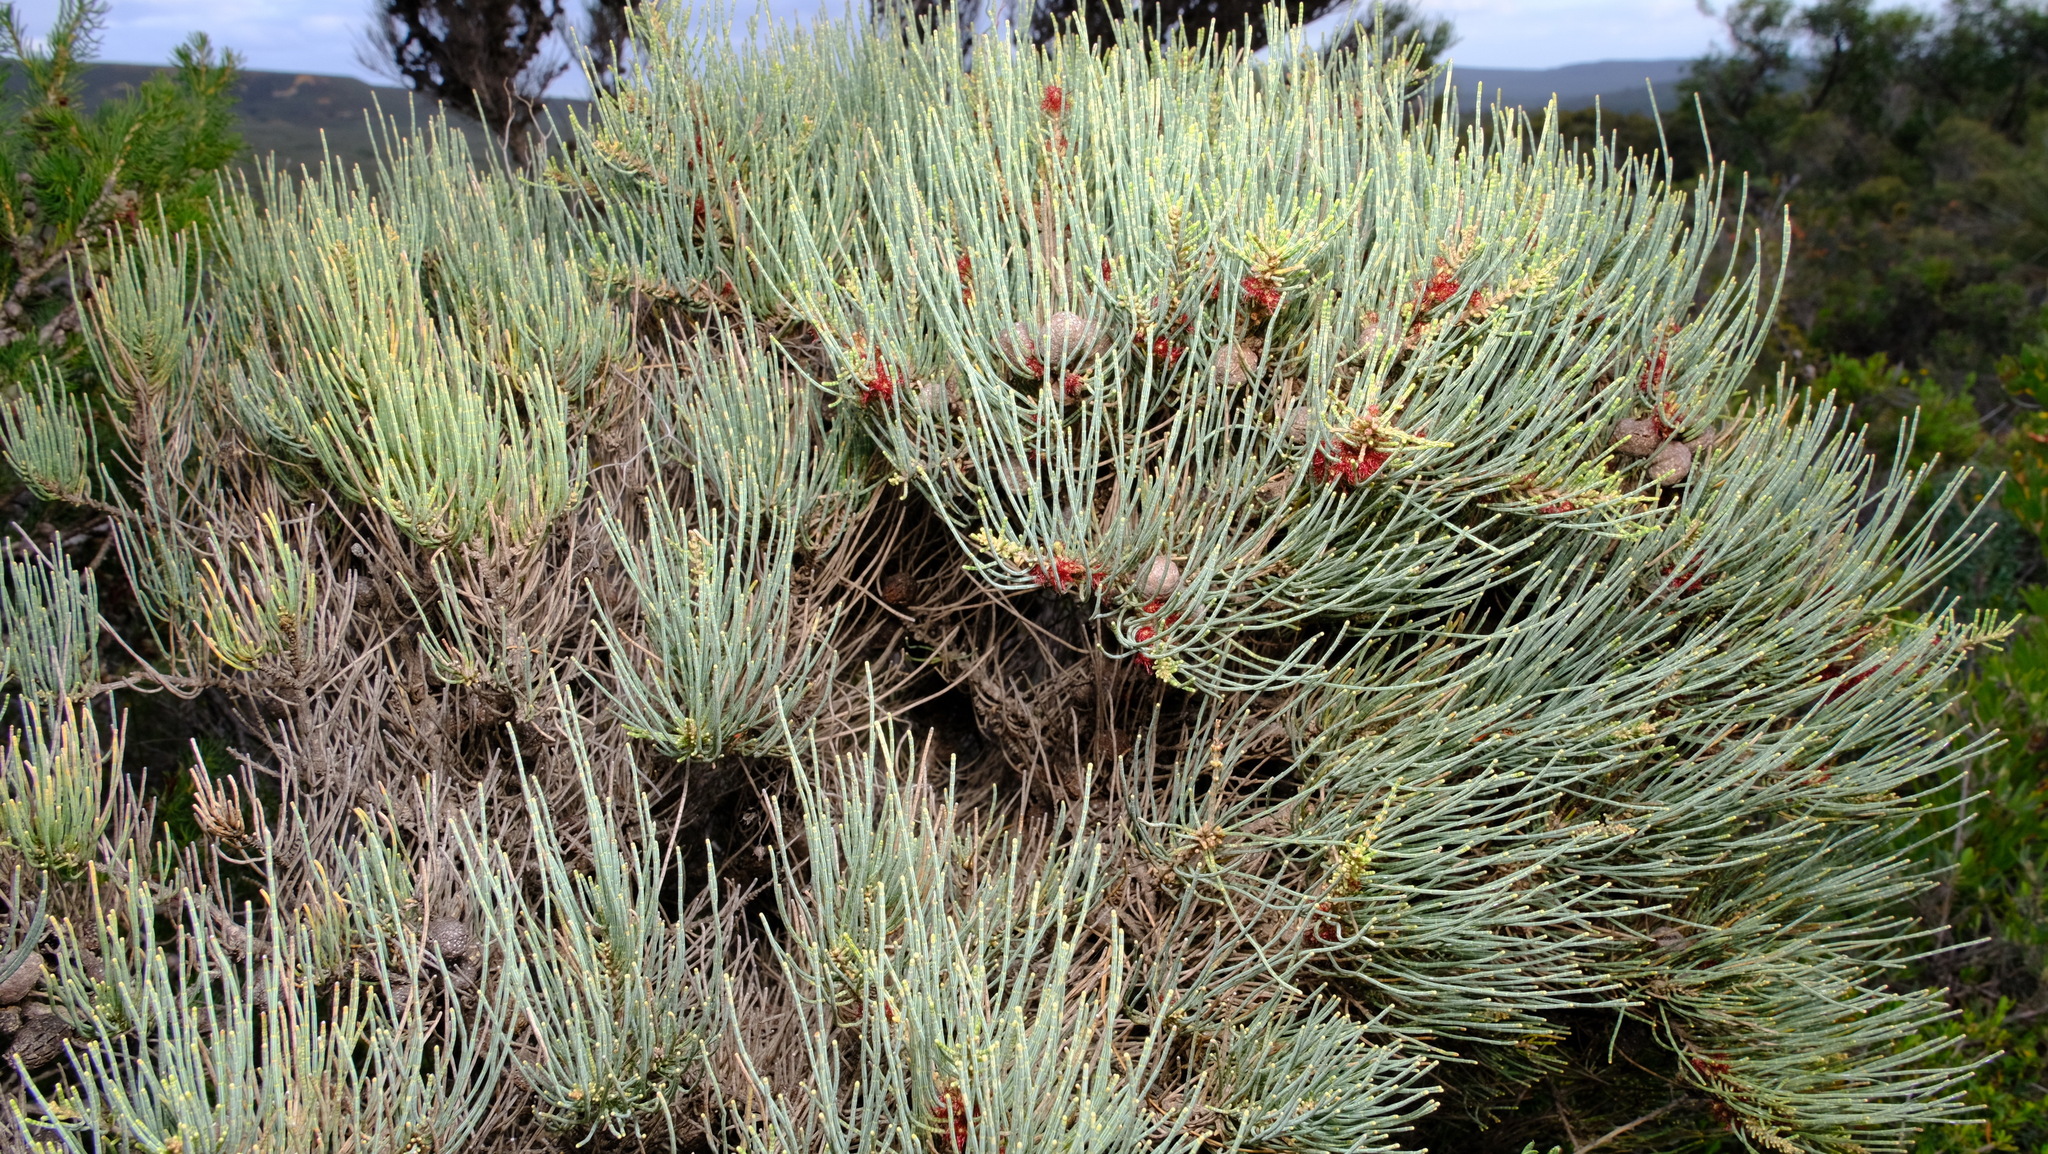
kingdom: Plantae
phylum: Tracheophyta
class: Magnoliopsida
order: Fagales
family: Casuarinaceae
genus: Allocasuarina
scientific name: Allocasuarina humilis
